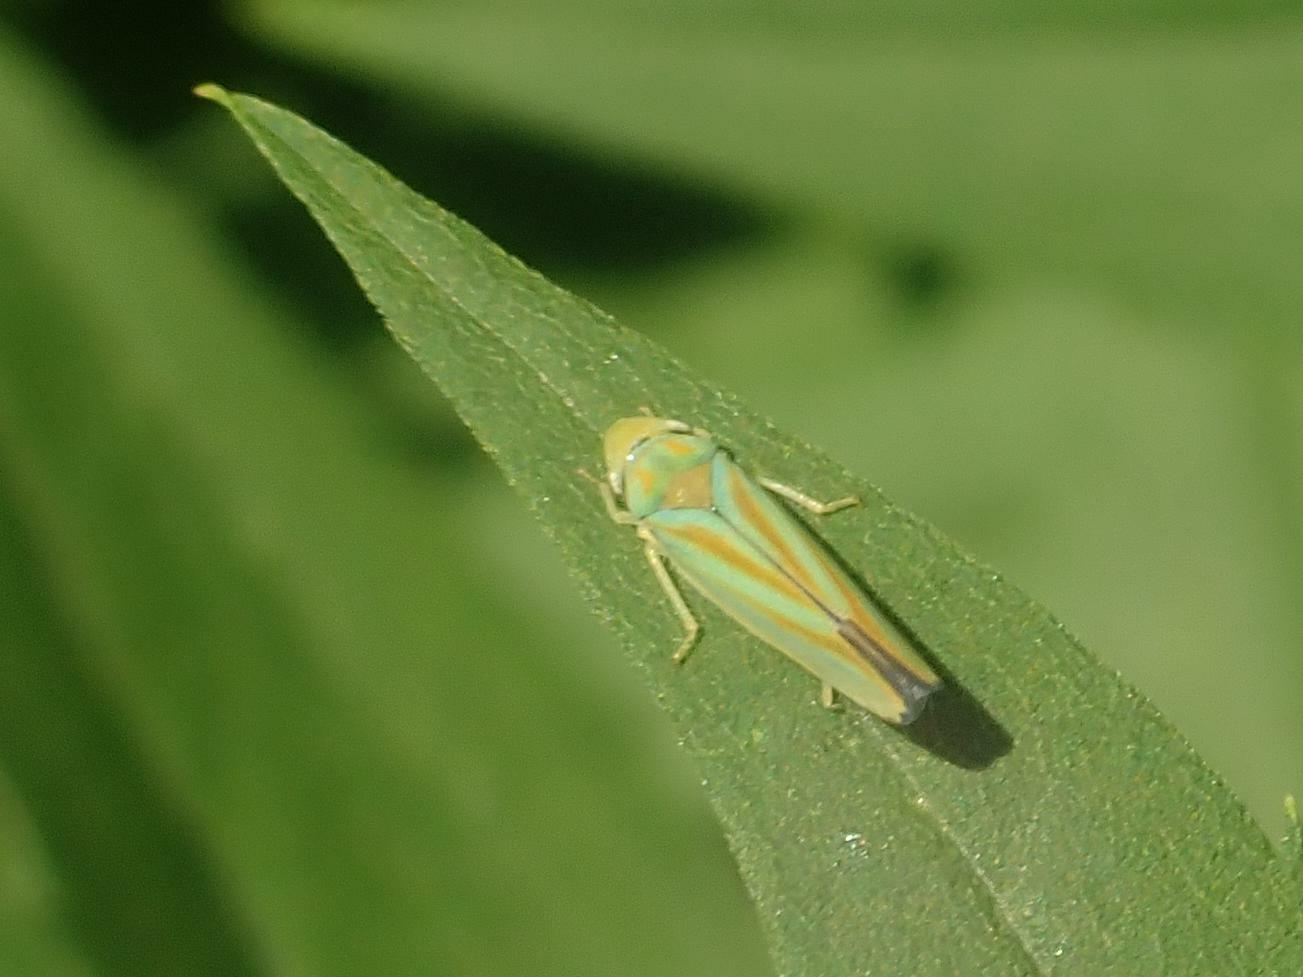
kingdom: Animalia
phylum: Arthropoda
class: Insecta
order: Hemiptera
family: Cicadellidae
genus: Graphocephala
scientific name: Graphocephala fennahi
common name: Rhododendron leafhopper
